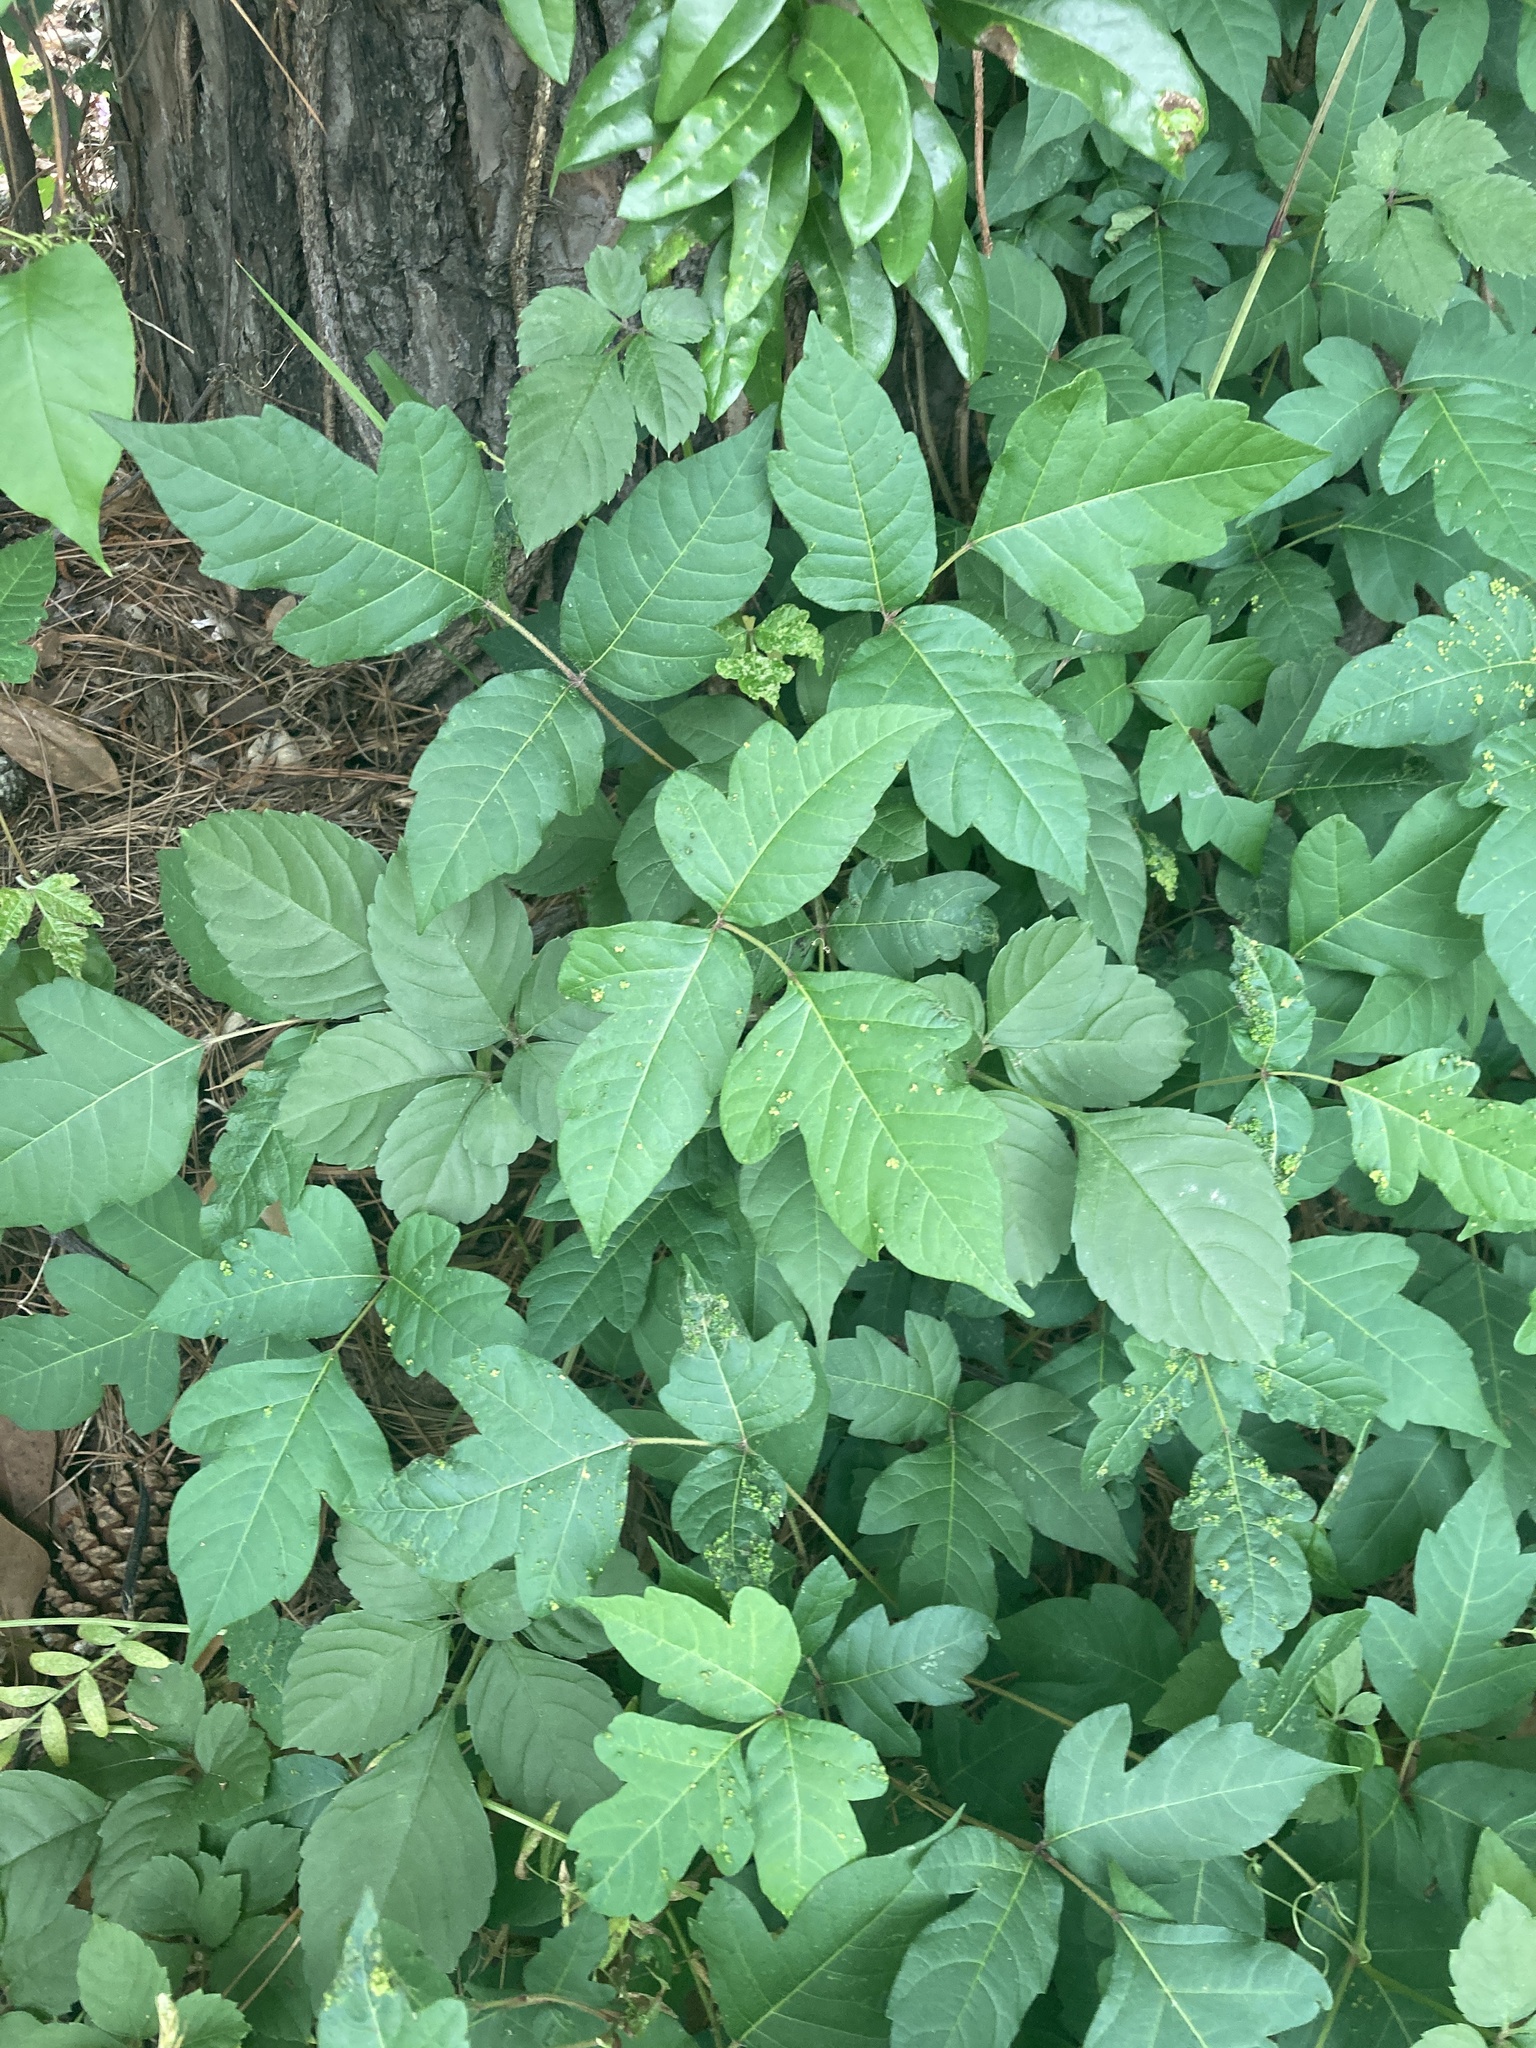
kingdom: Plantae
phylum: Tracheophyta
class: Magnoliopsida
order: Sapindales
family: Anacardiaceae
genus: Toxicodendron
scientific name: Toxicodendron radicans
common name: Poison ivy
